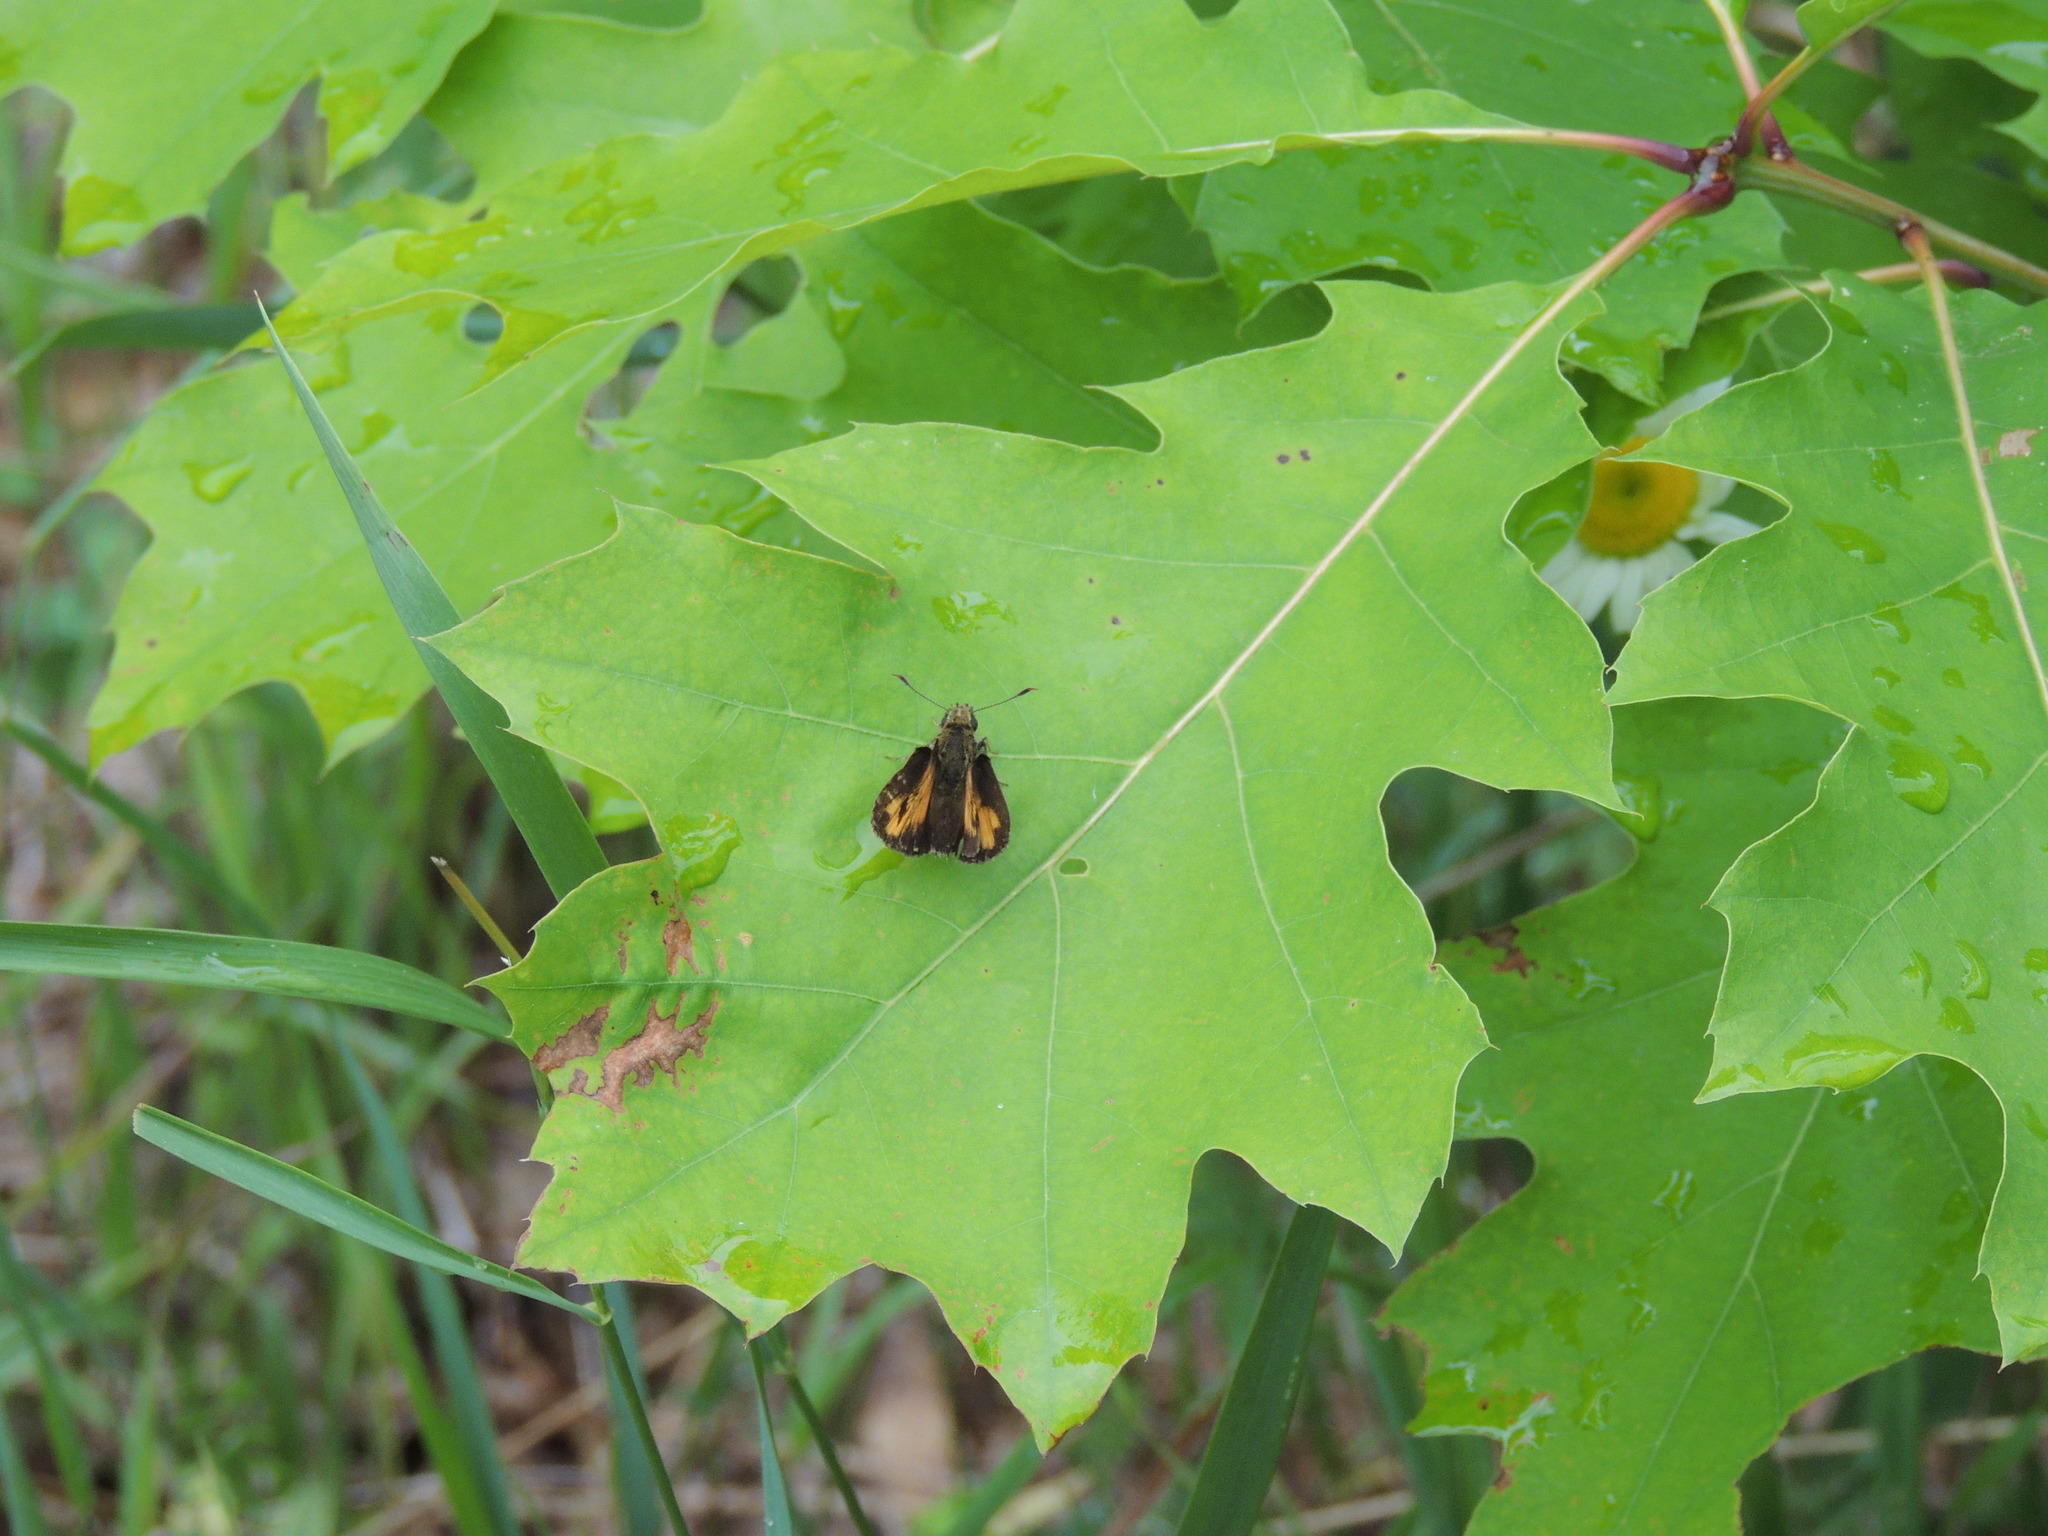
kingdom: Animalia
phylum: Arthropoda
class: Insecta
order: Lepidoptera
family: Hesperiidae
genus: Lon
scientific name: Lon hobomok
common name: Hobomok skipper
